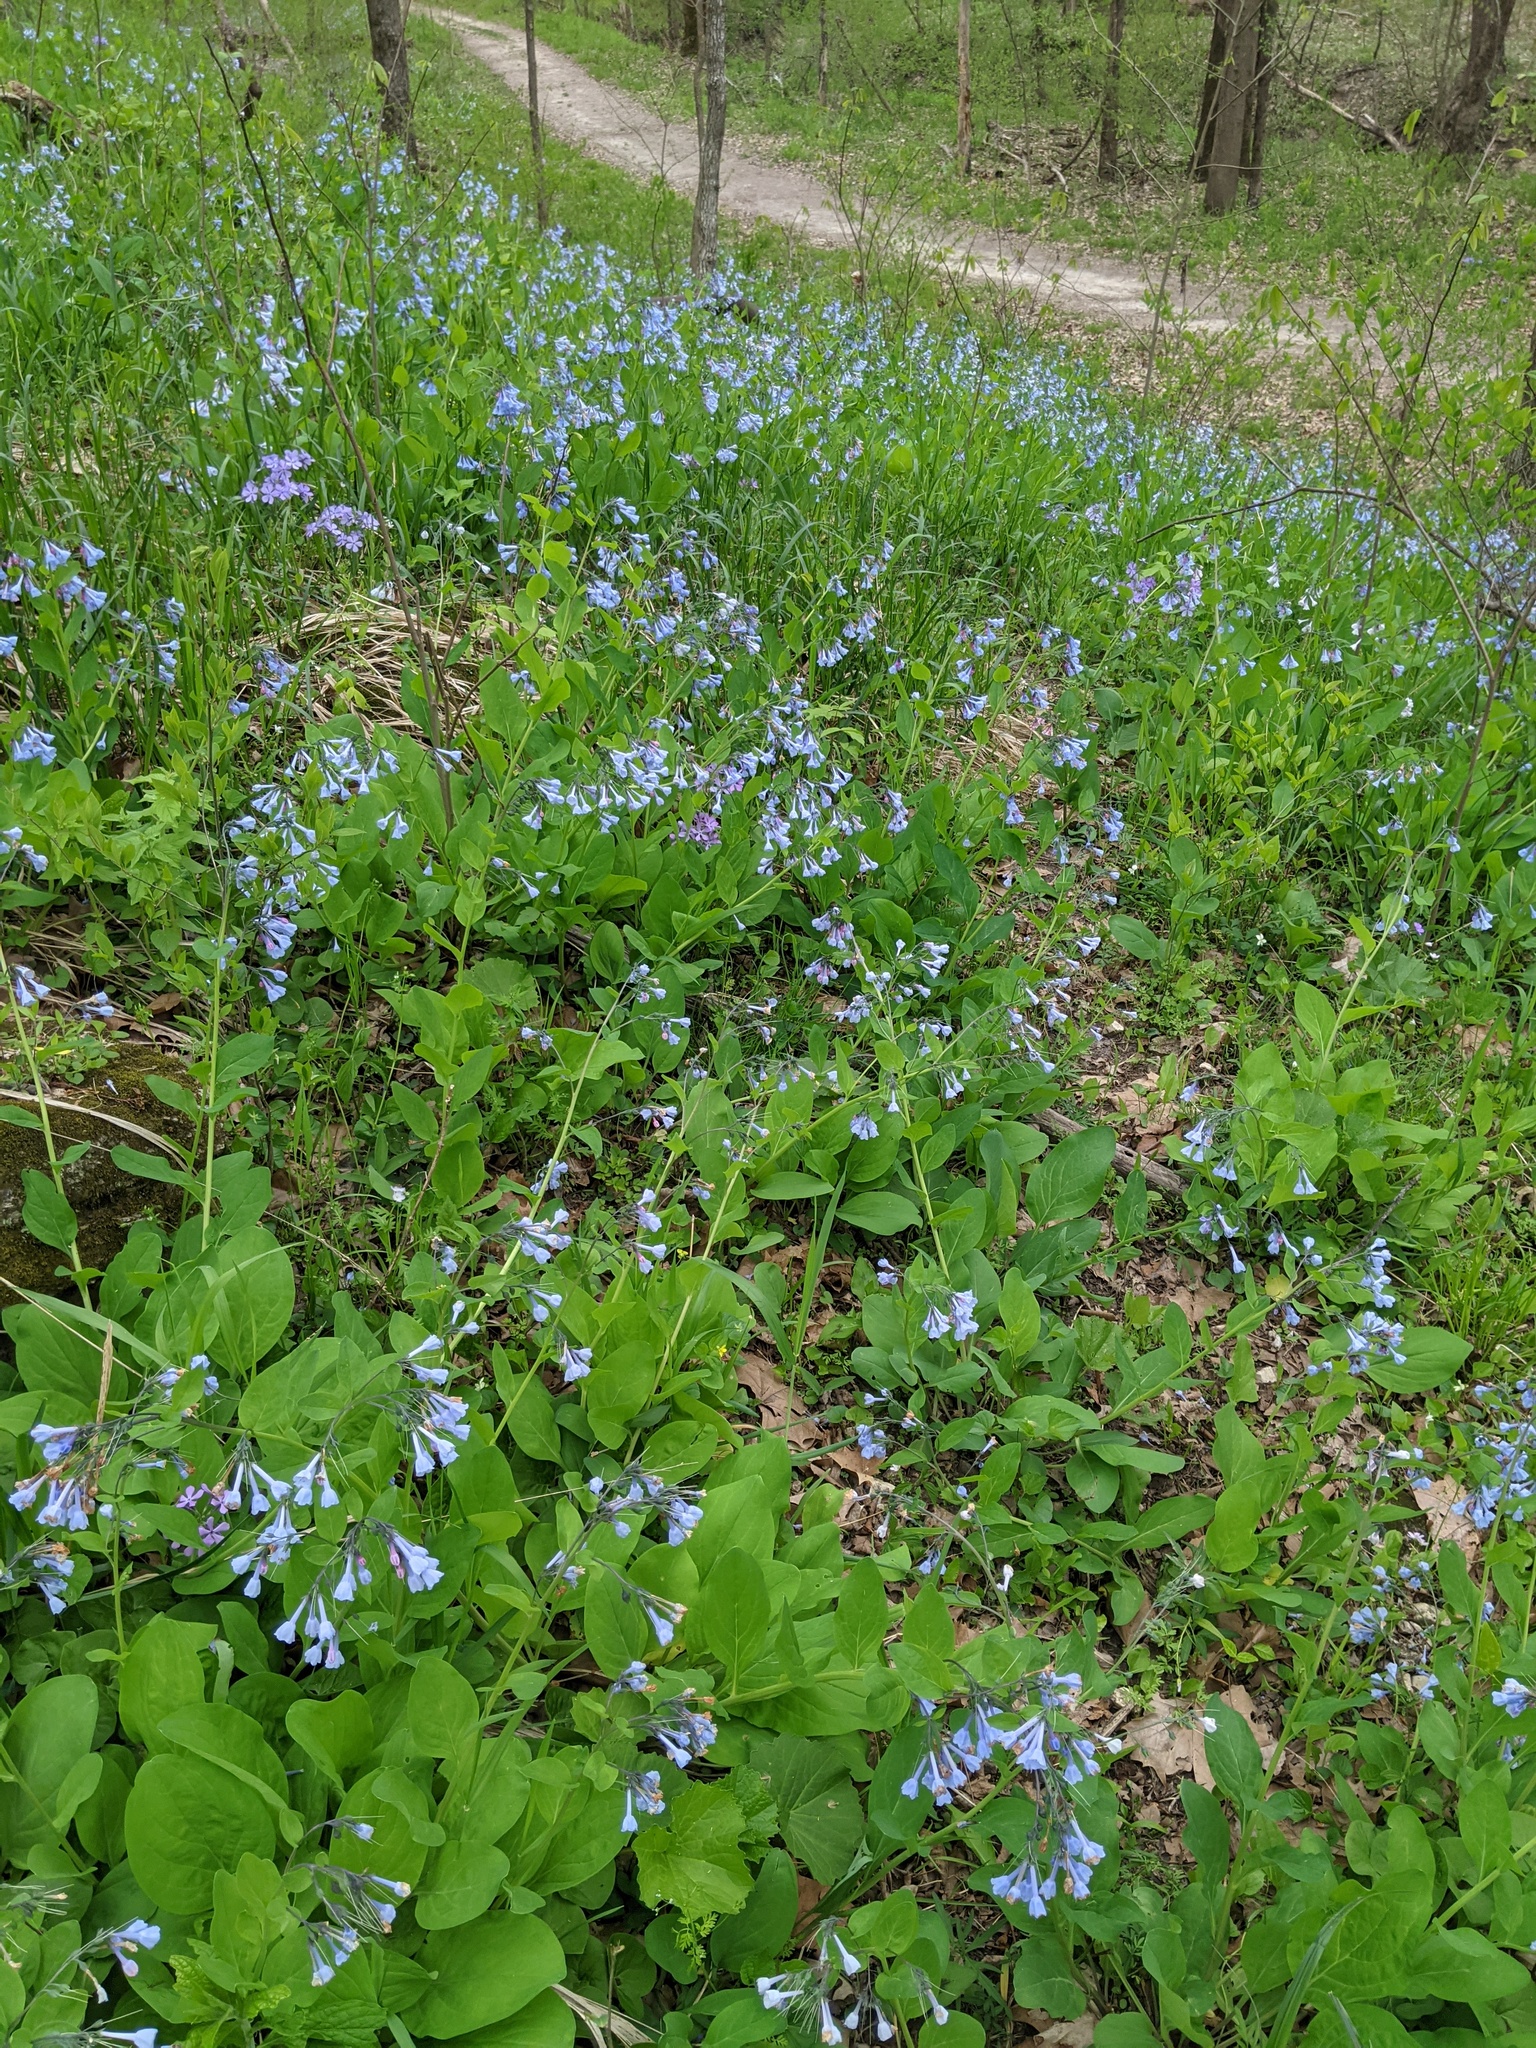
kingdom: Plantae
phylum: Tracheophyta
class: Magnoliopsida
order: Boraginales
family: Boraginaceae
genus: Mertensia
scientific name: Mertensia virginica
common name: Virginia bluebells
